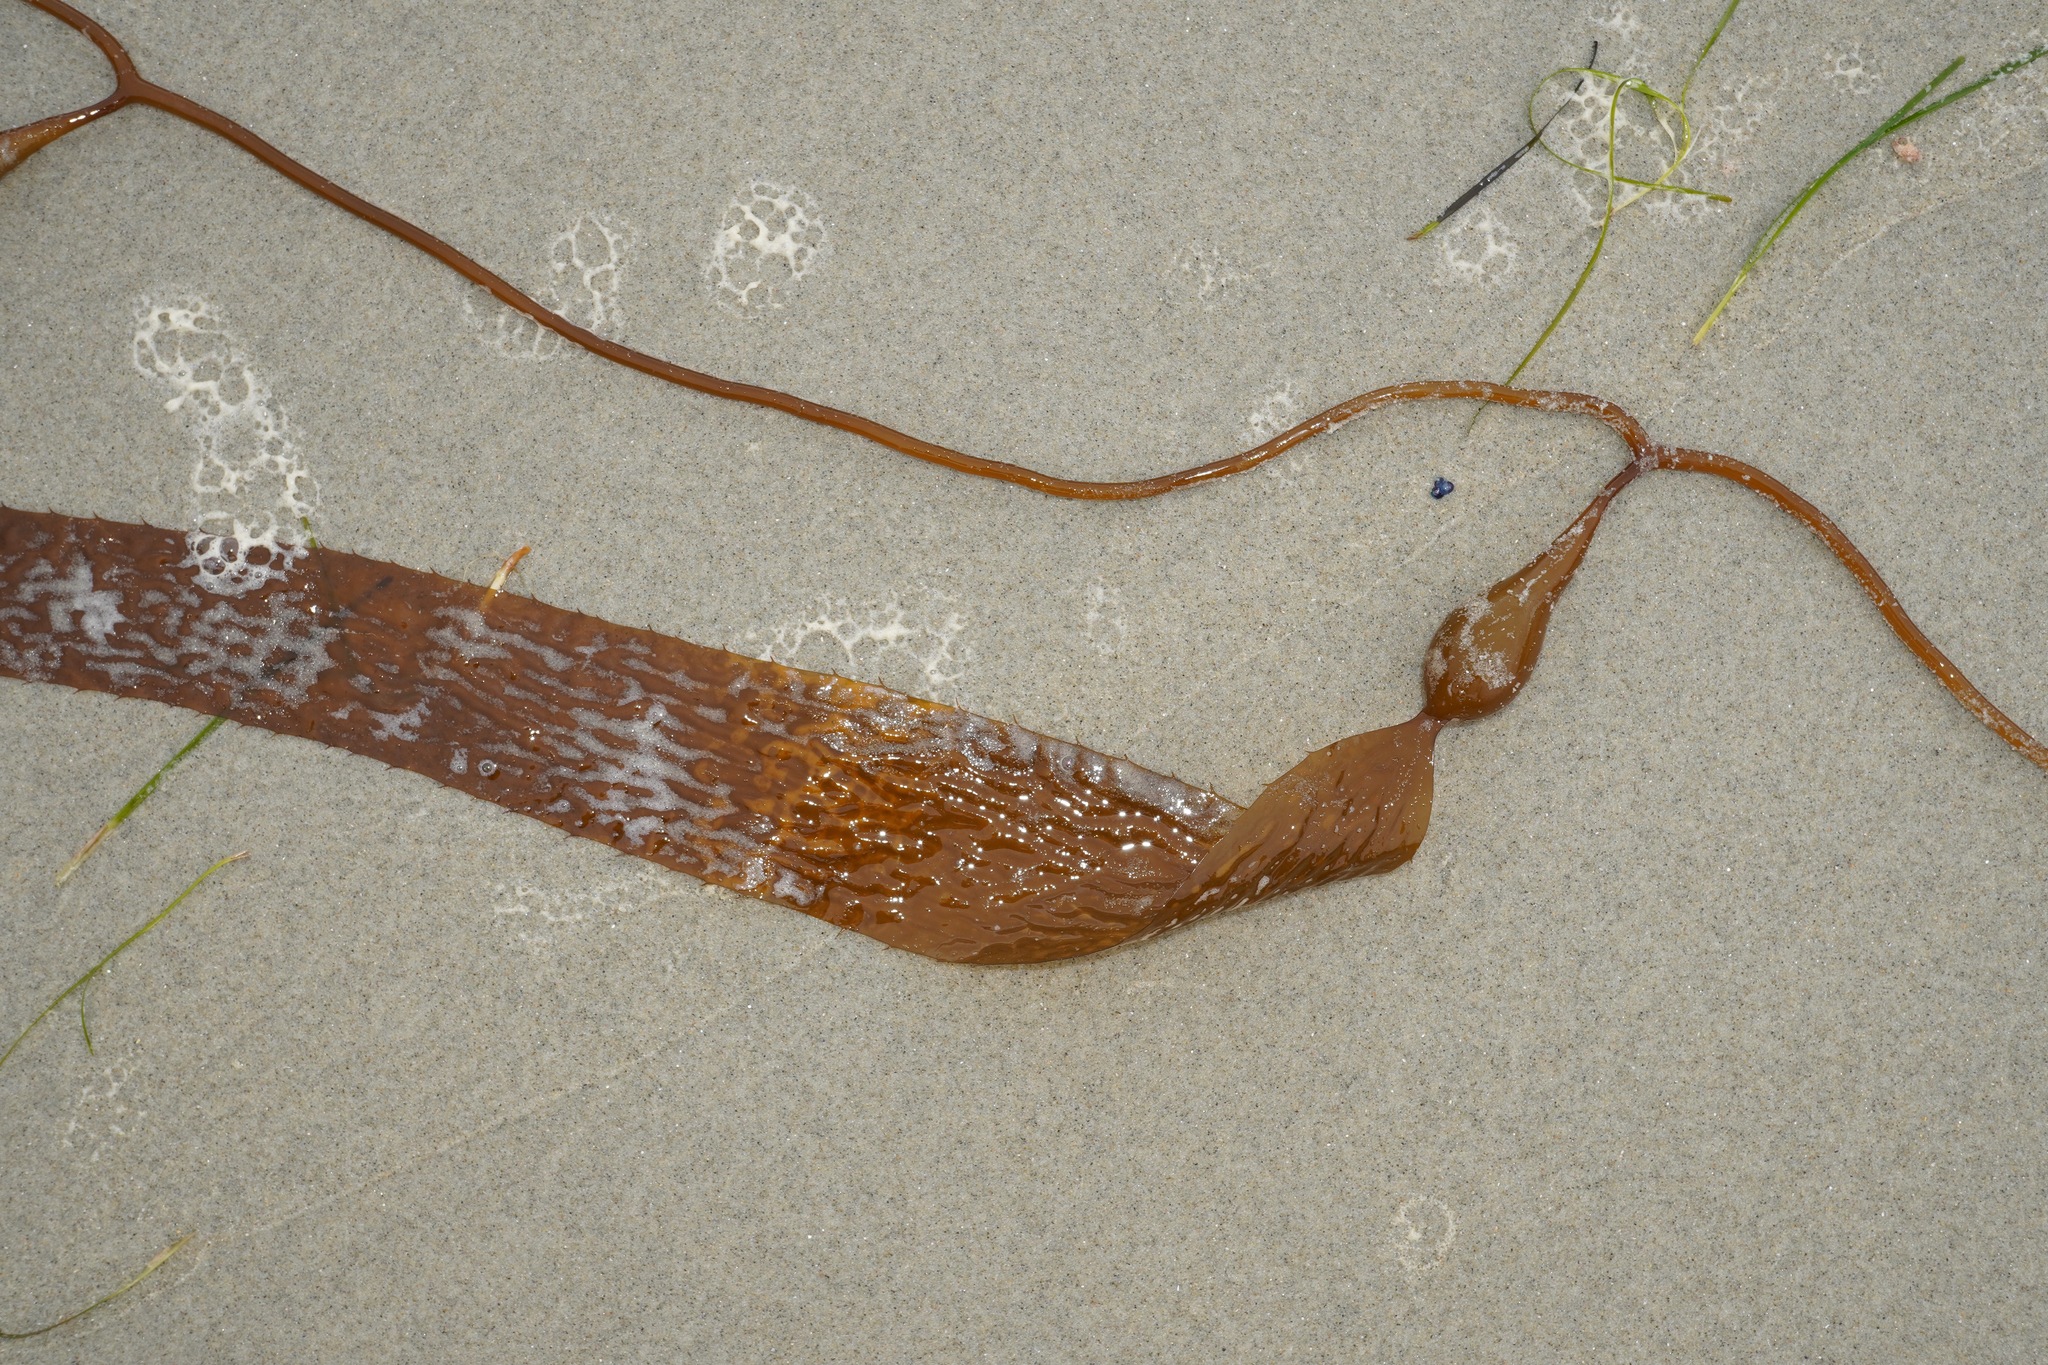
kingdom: Chromista
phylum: Ochrophyta
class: Phaeophyceae
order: Laminariales
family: Laminariaceae
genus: Macrocystis
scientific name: Macrocystis pyrifera
